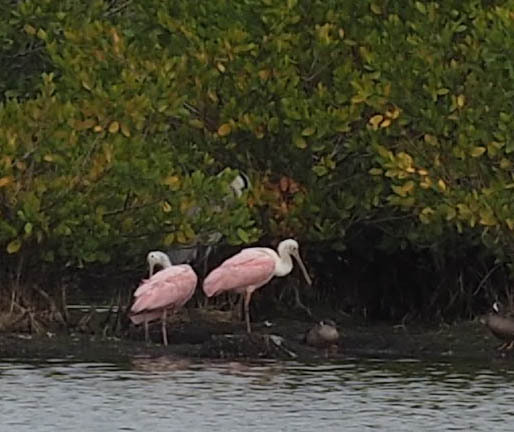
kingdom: Animalia
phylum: Chordata
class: Aves
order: Pelecaniformes
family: Threskiornithidae
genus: Platalea
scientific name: Platalea ajaja
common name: Roseate spoonbill
